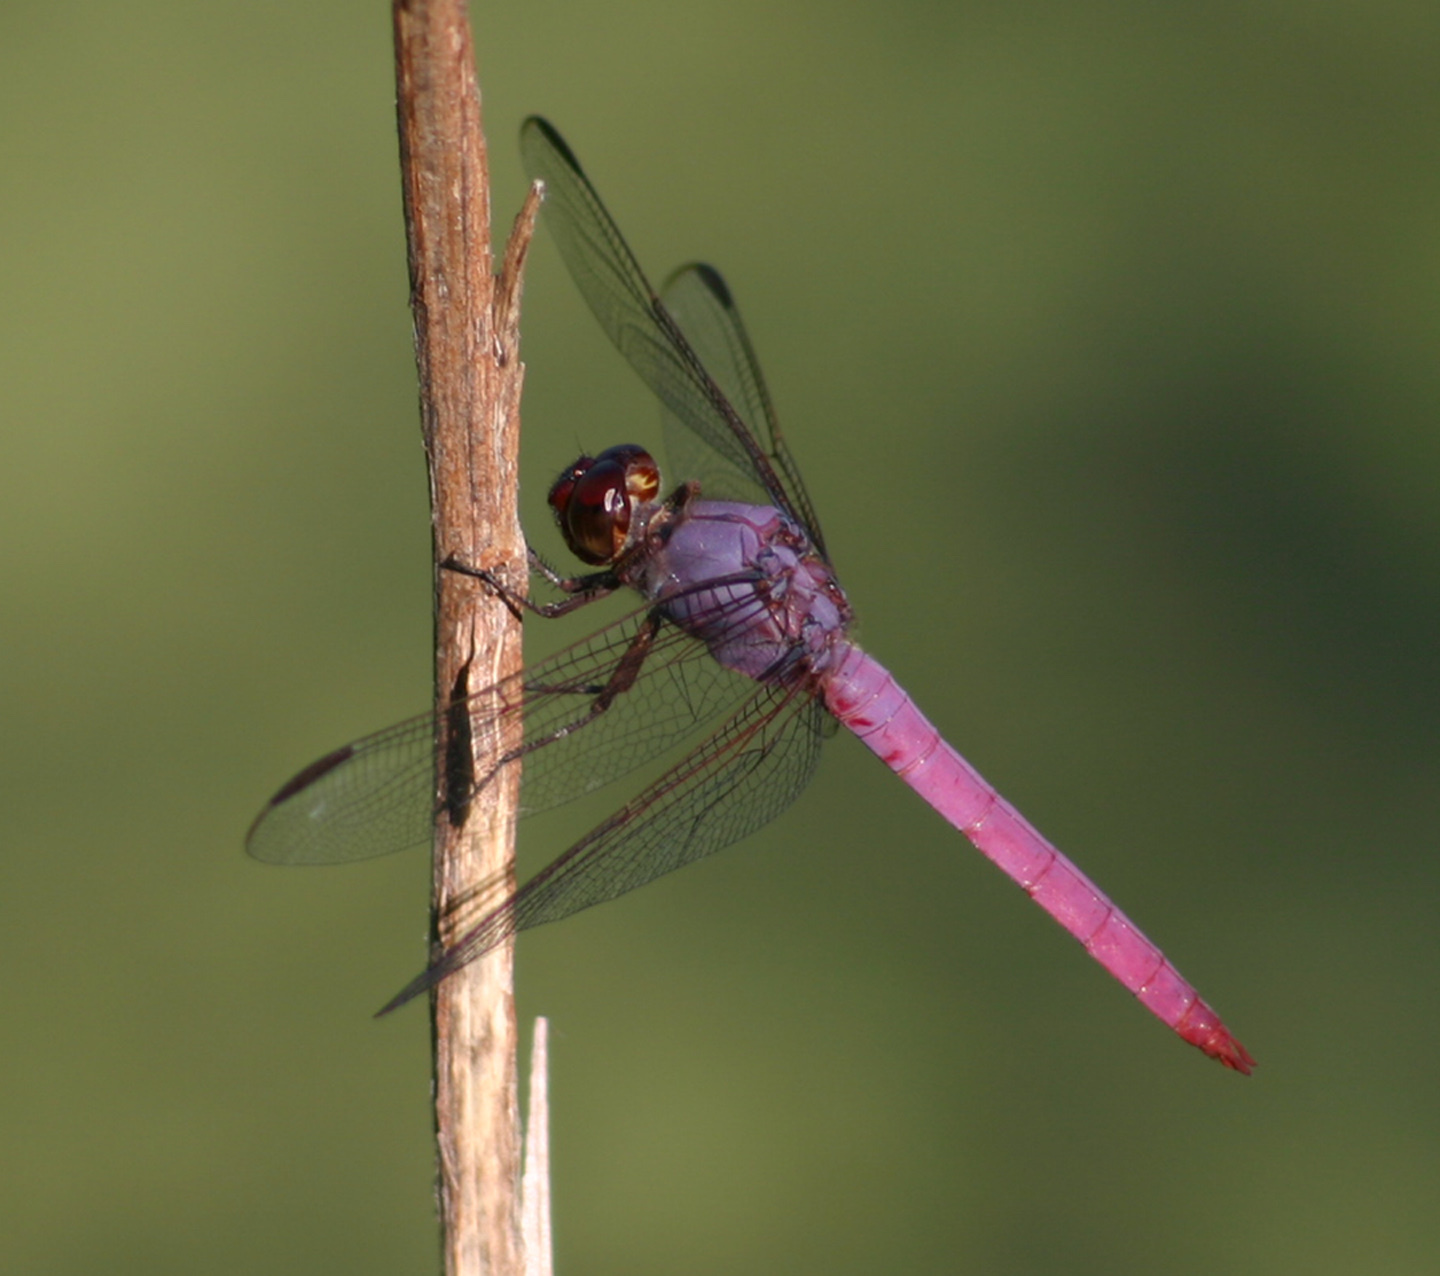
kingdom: Animalia
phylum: Arthropoda
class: Insecta
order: Odonata
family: Libellulidae
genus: Orthemis
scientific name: Orthemis ferruginea
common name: Roseate skimmer
